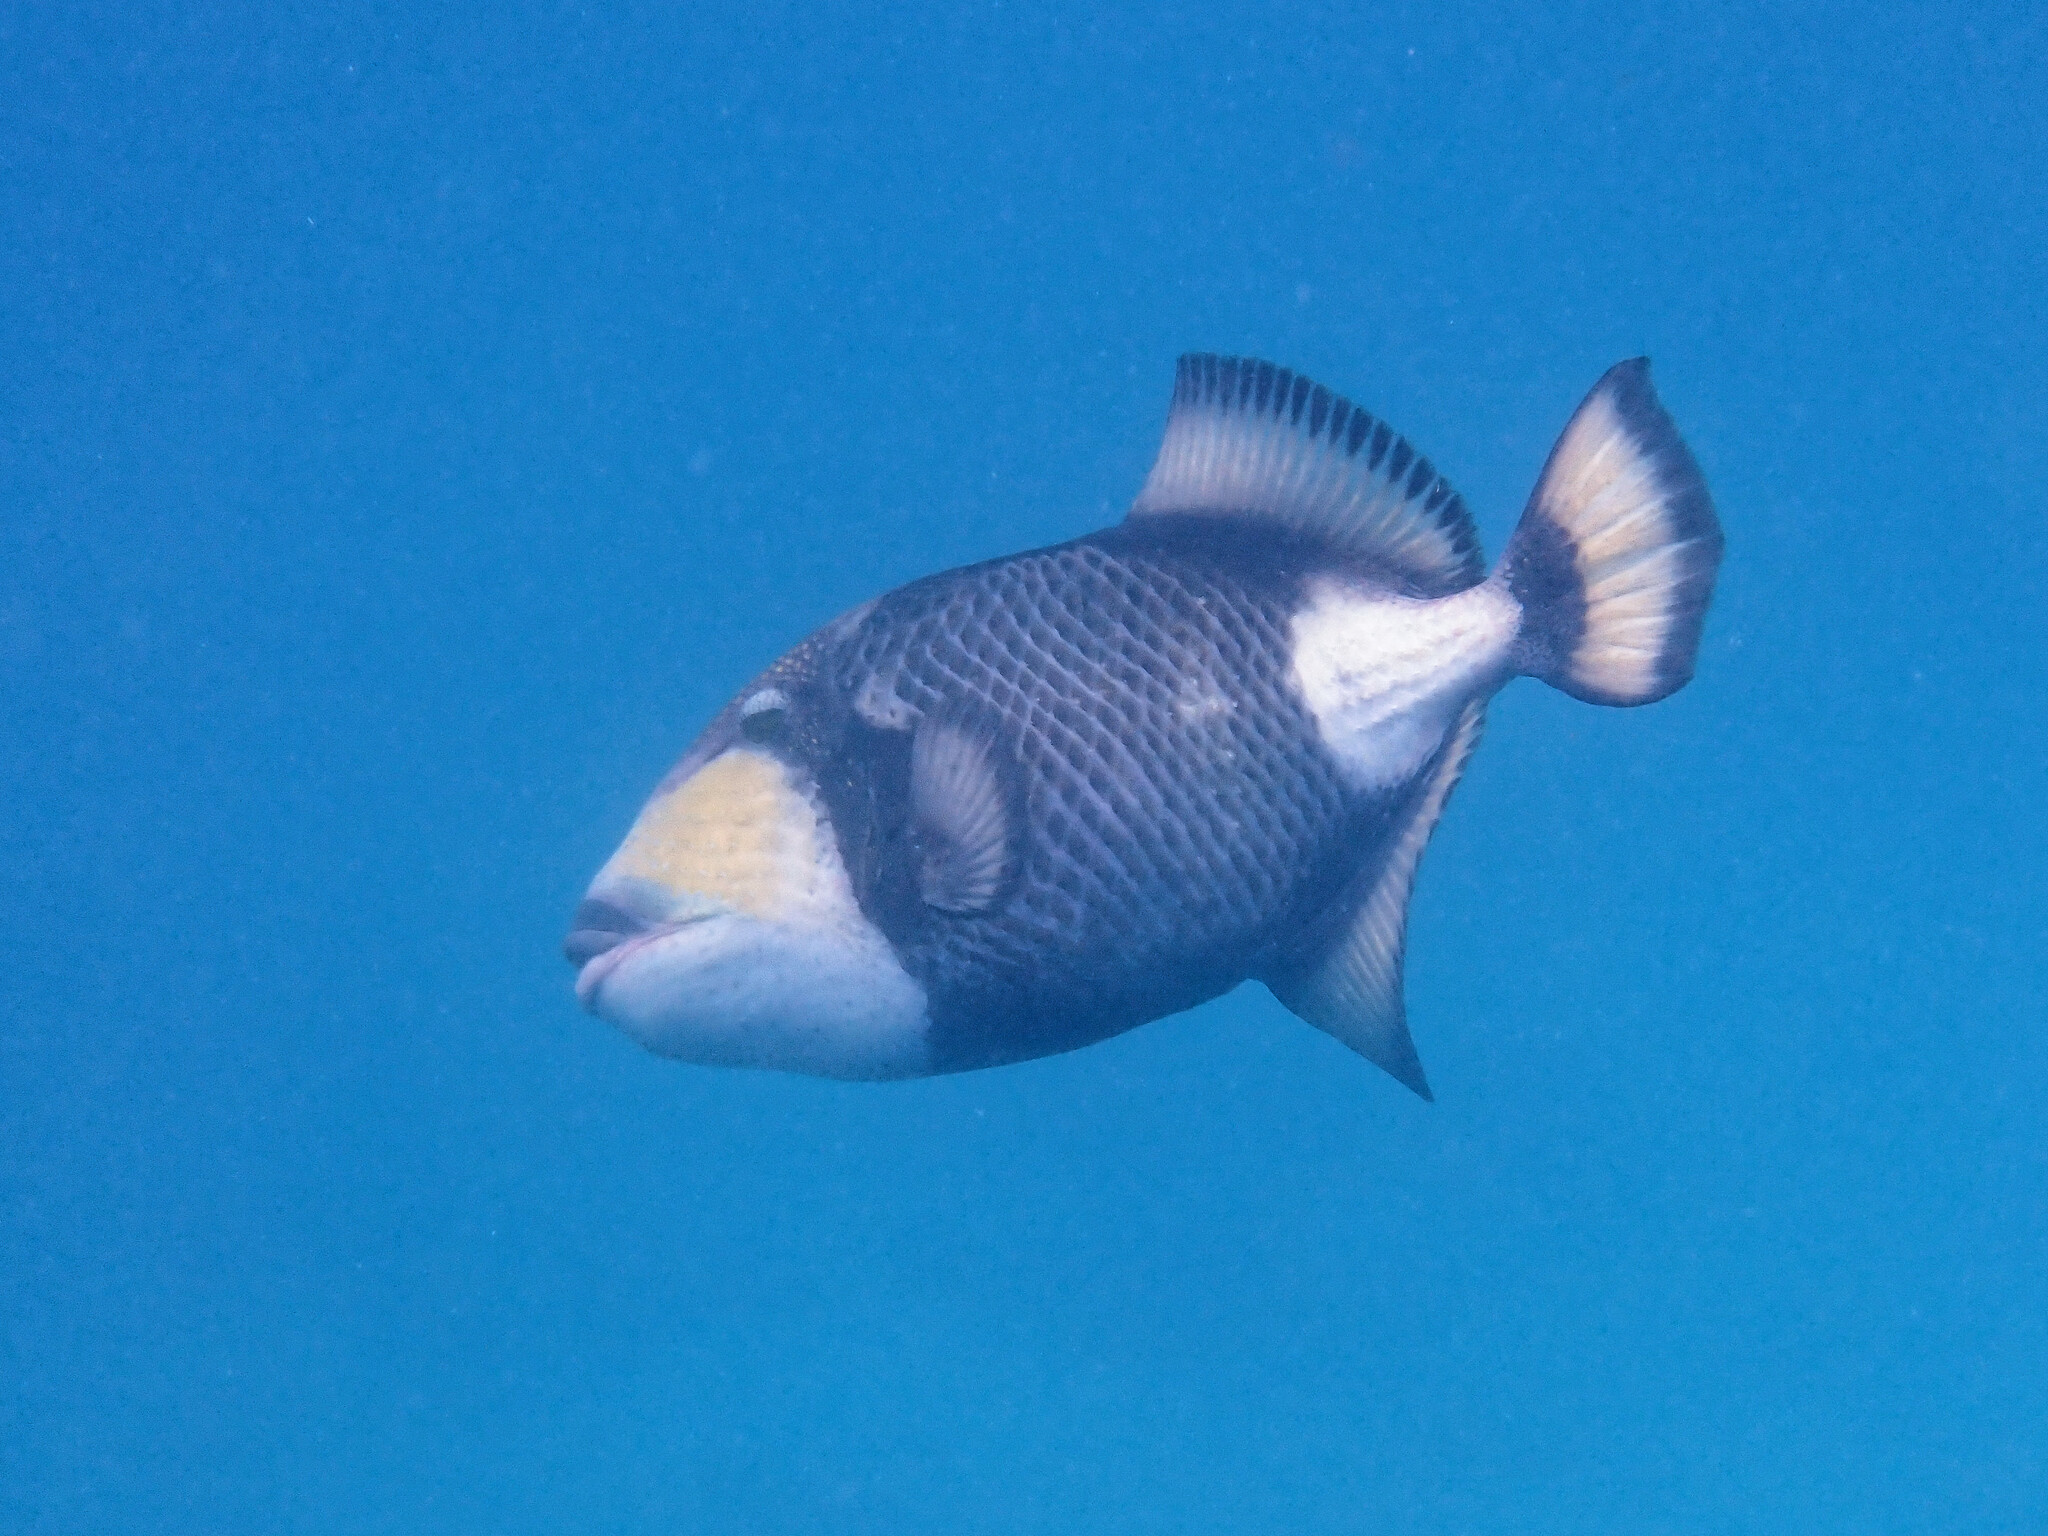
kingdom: Animalia
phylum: Chordata
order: Tetraodontiformes
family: Balistidae
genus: Balistoides
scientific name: Balistoides viridescens
